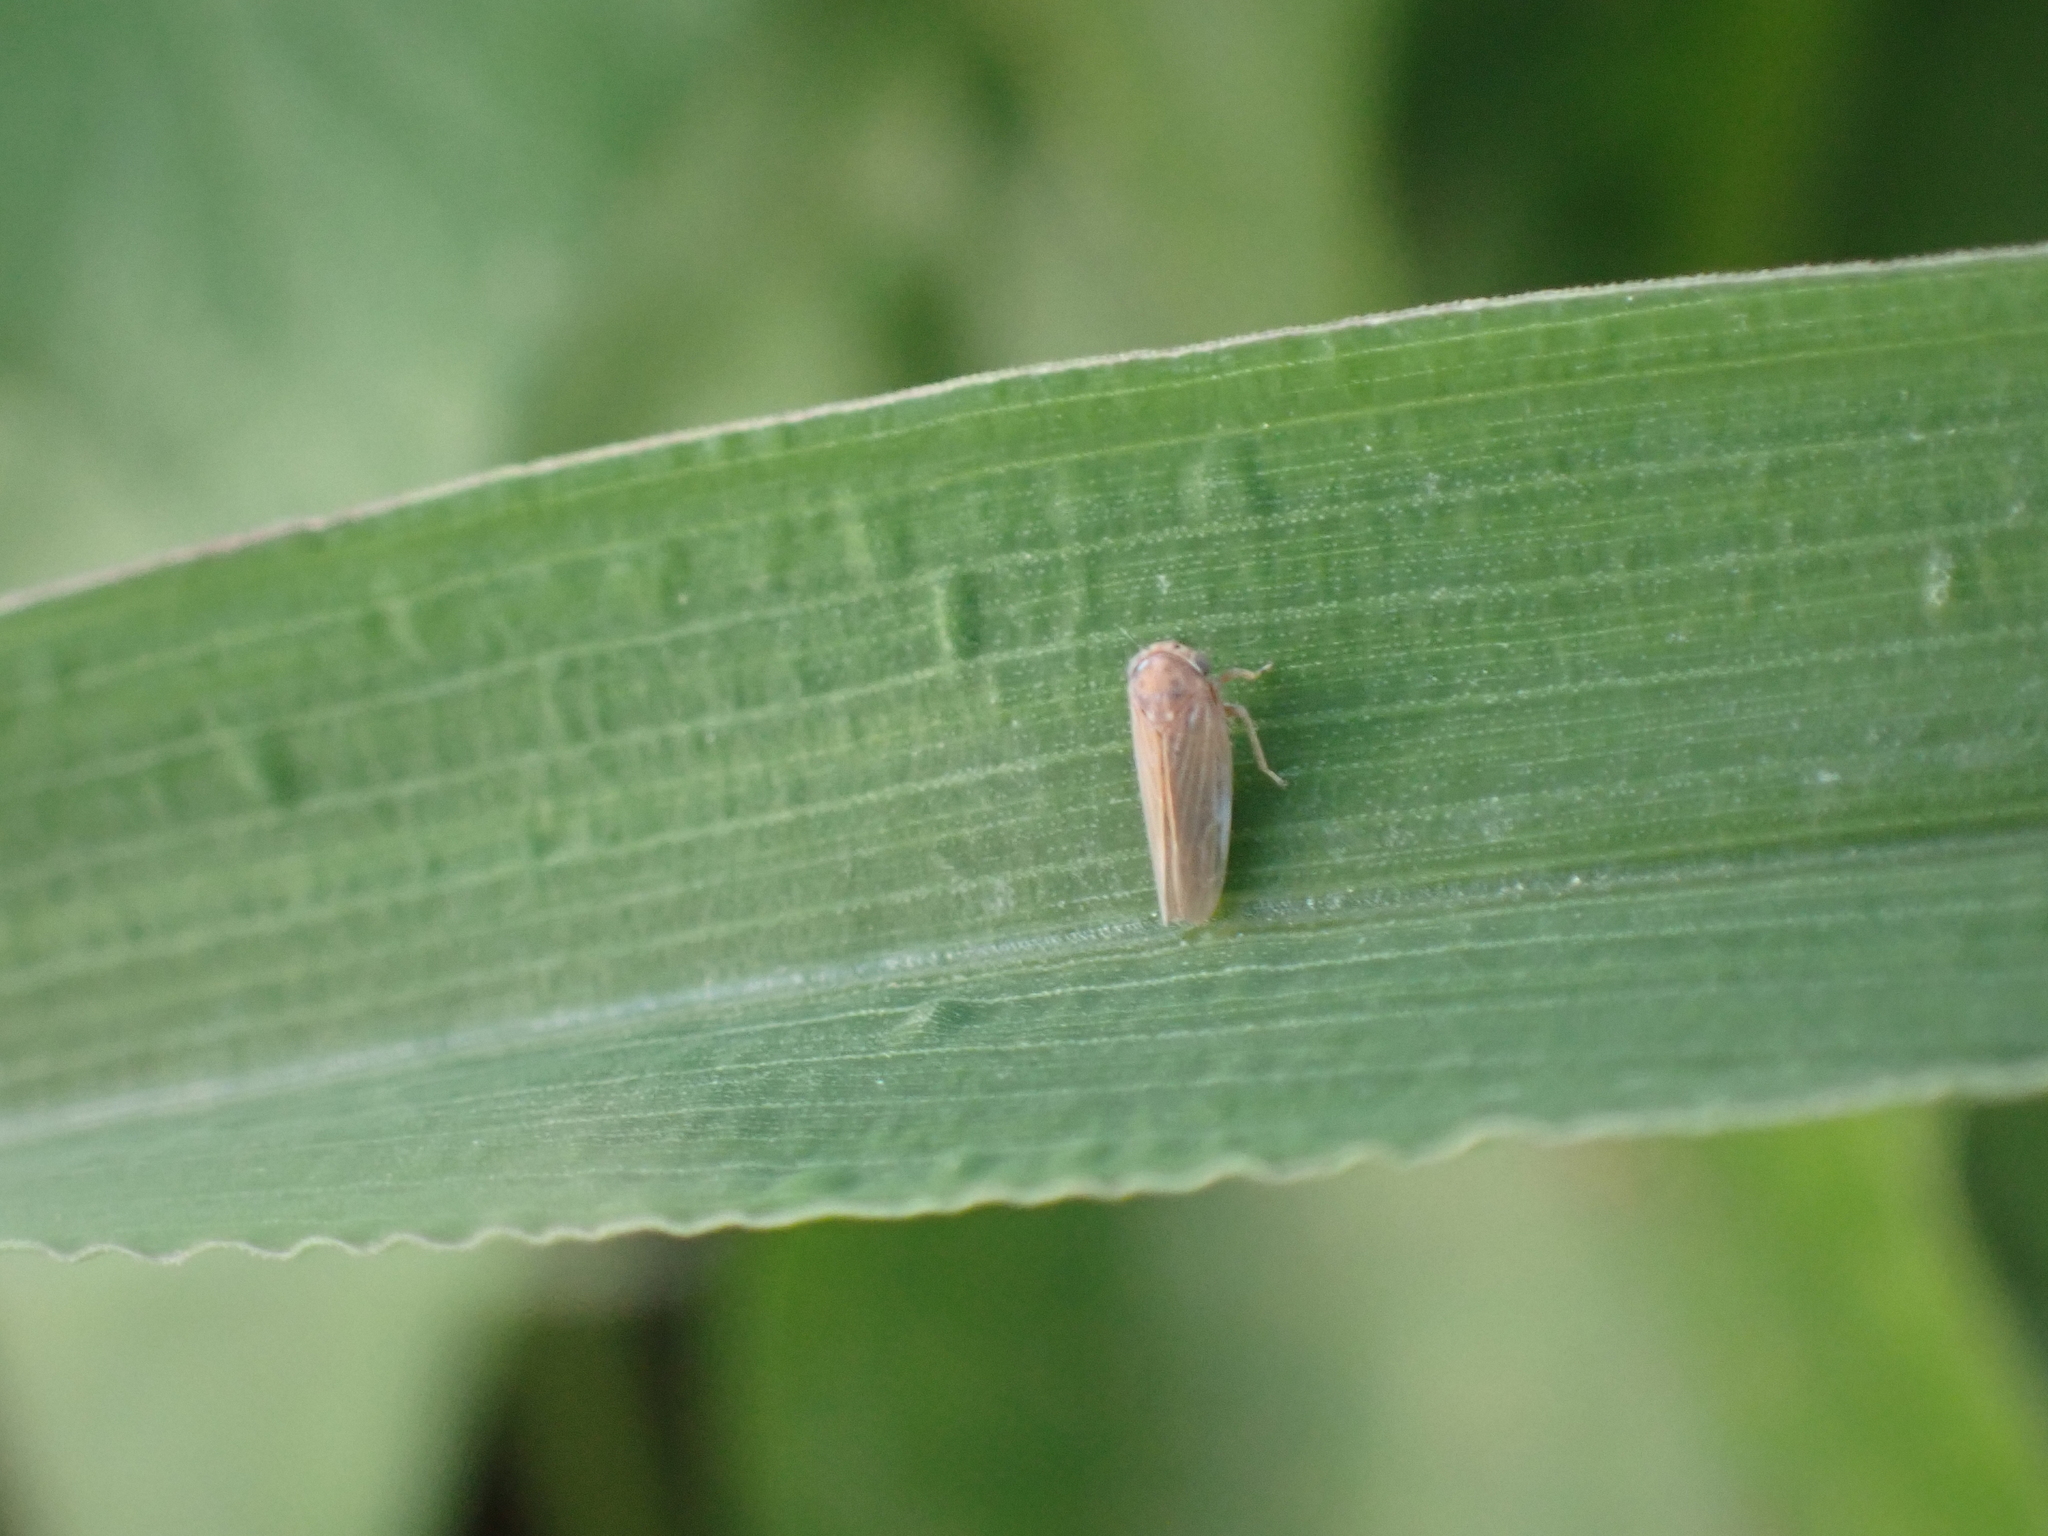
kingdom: Animalia
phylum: Arthropoda
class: Insecta
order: Hemiptera
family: Cicadellidae
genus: Agallia
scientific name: Agallia constricta
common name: The constricted leafhopper
